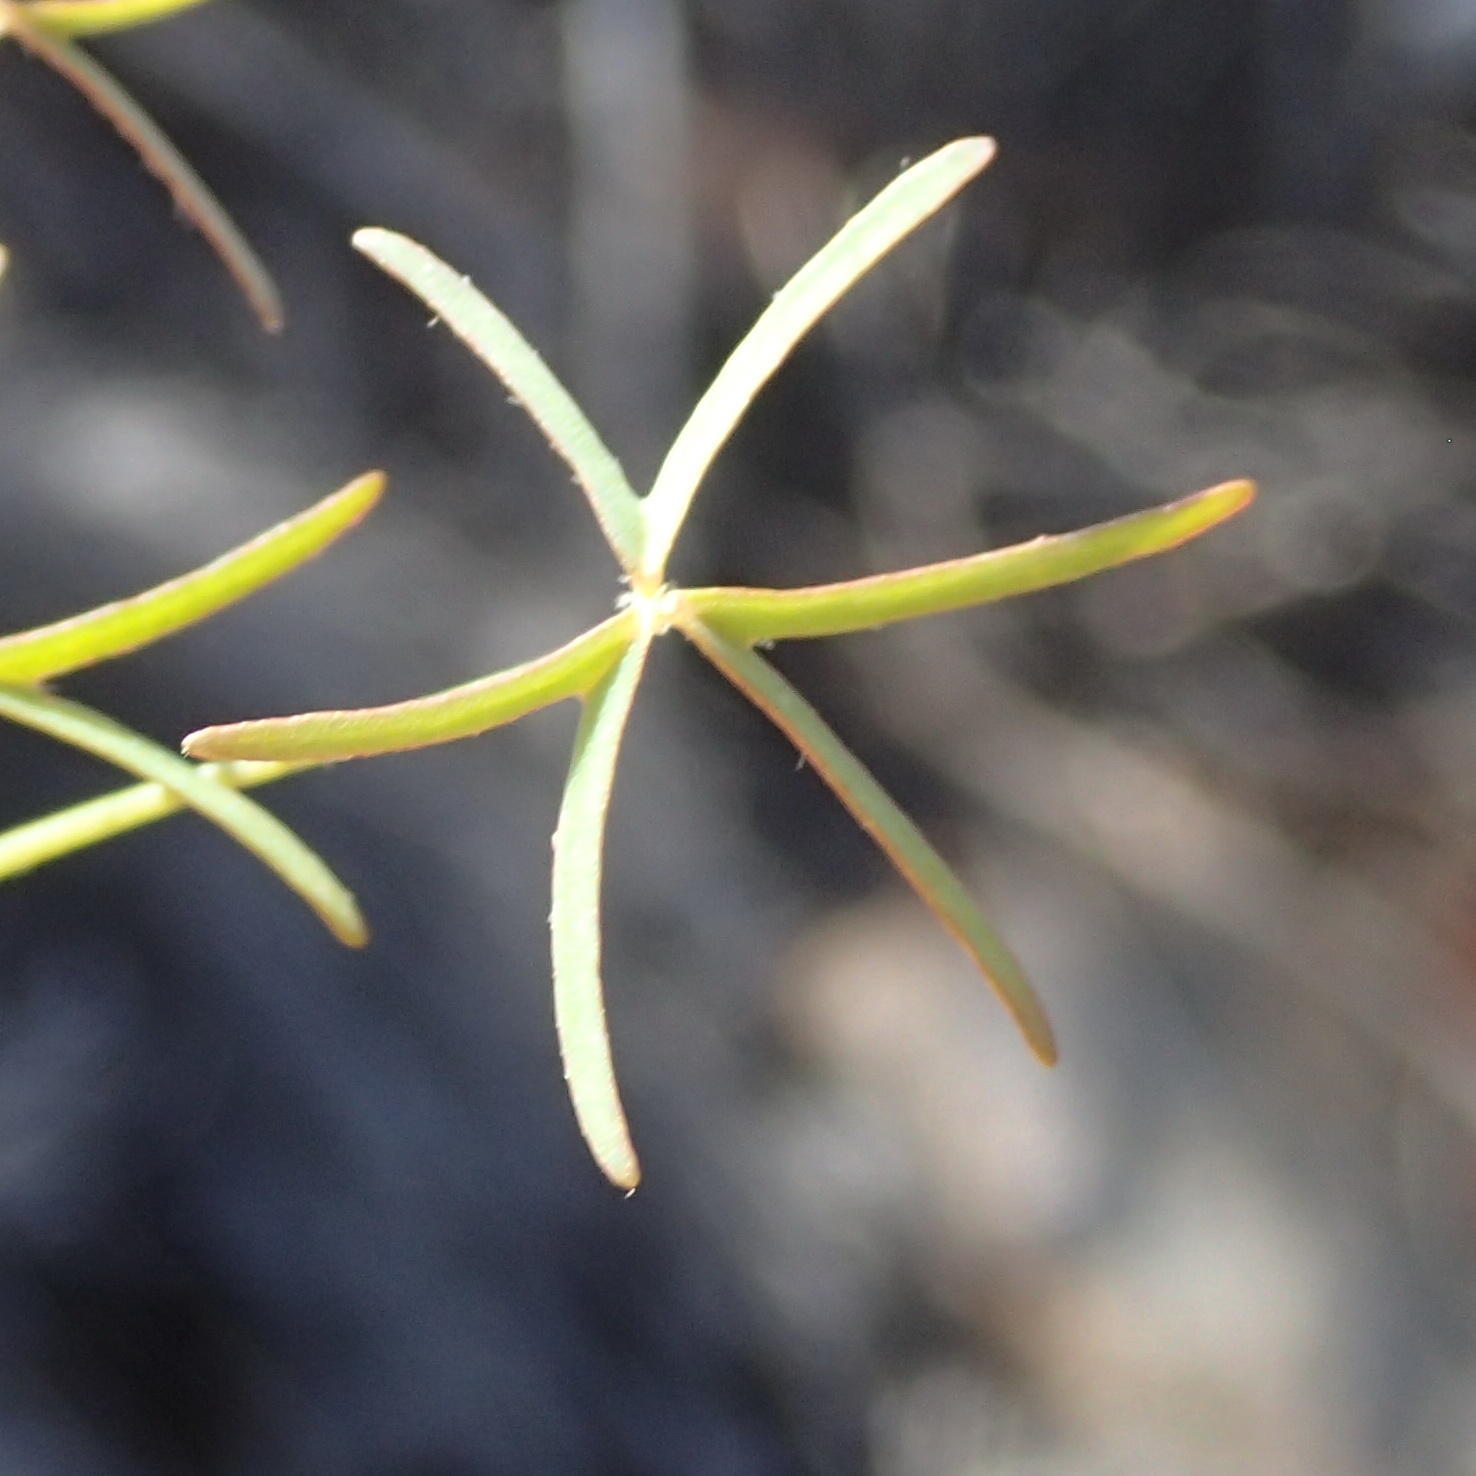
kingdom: Plantae
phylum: Tracheophyta
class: Magnoliopsida
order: Oxalidales
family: Oxalidaceae
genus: Oxalis
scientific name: Oxalis stellata
